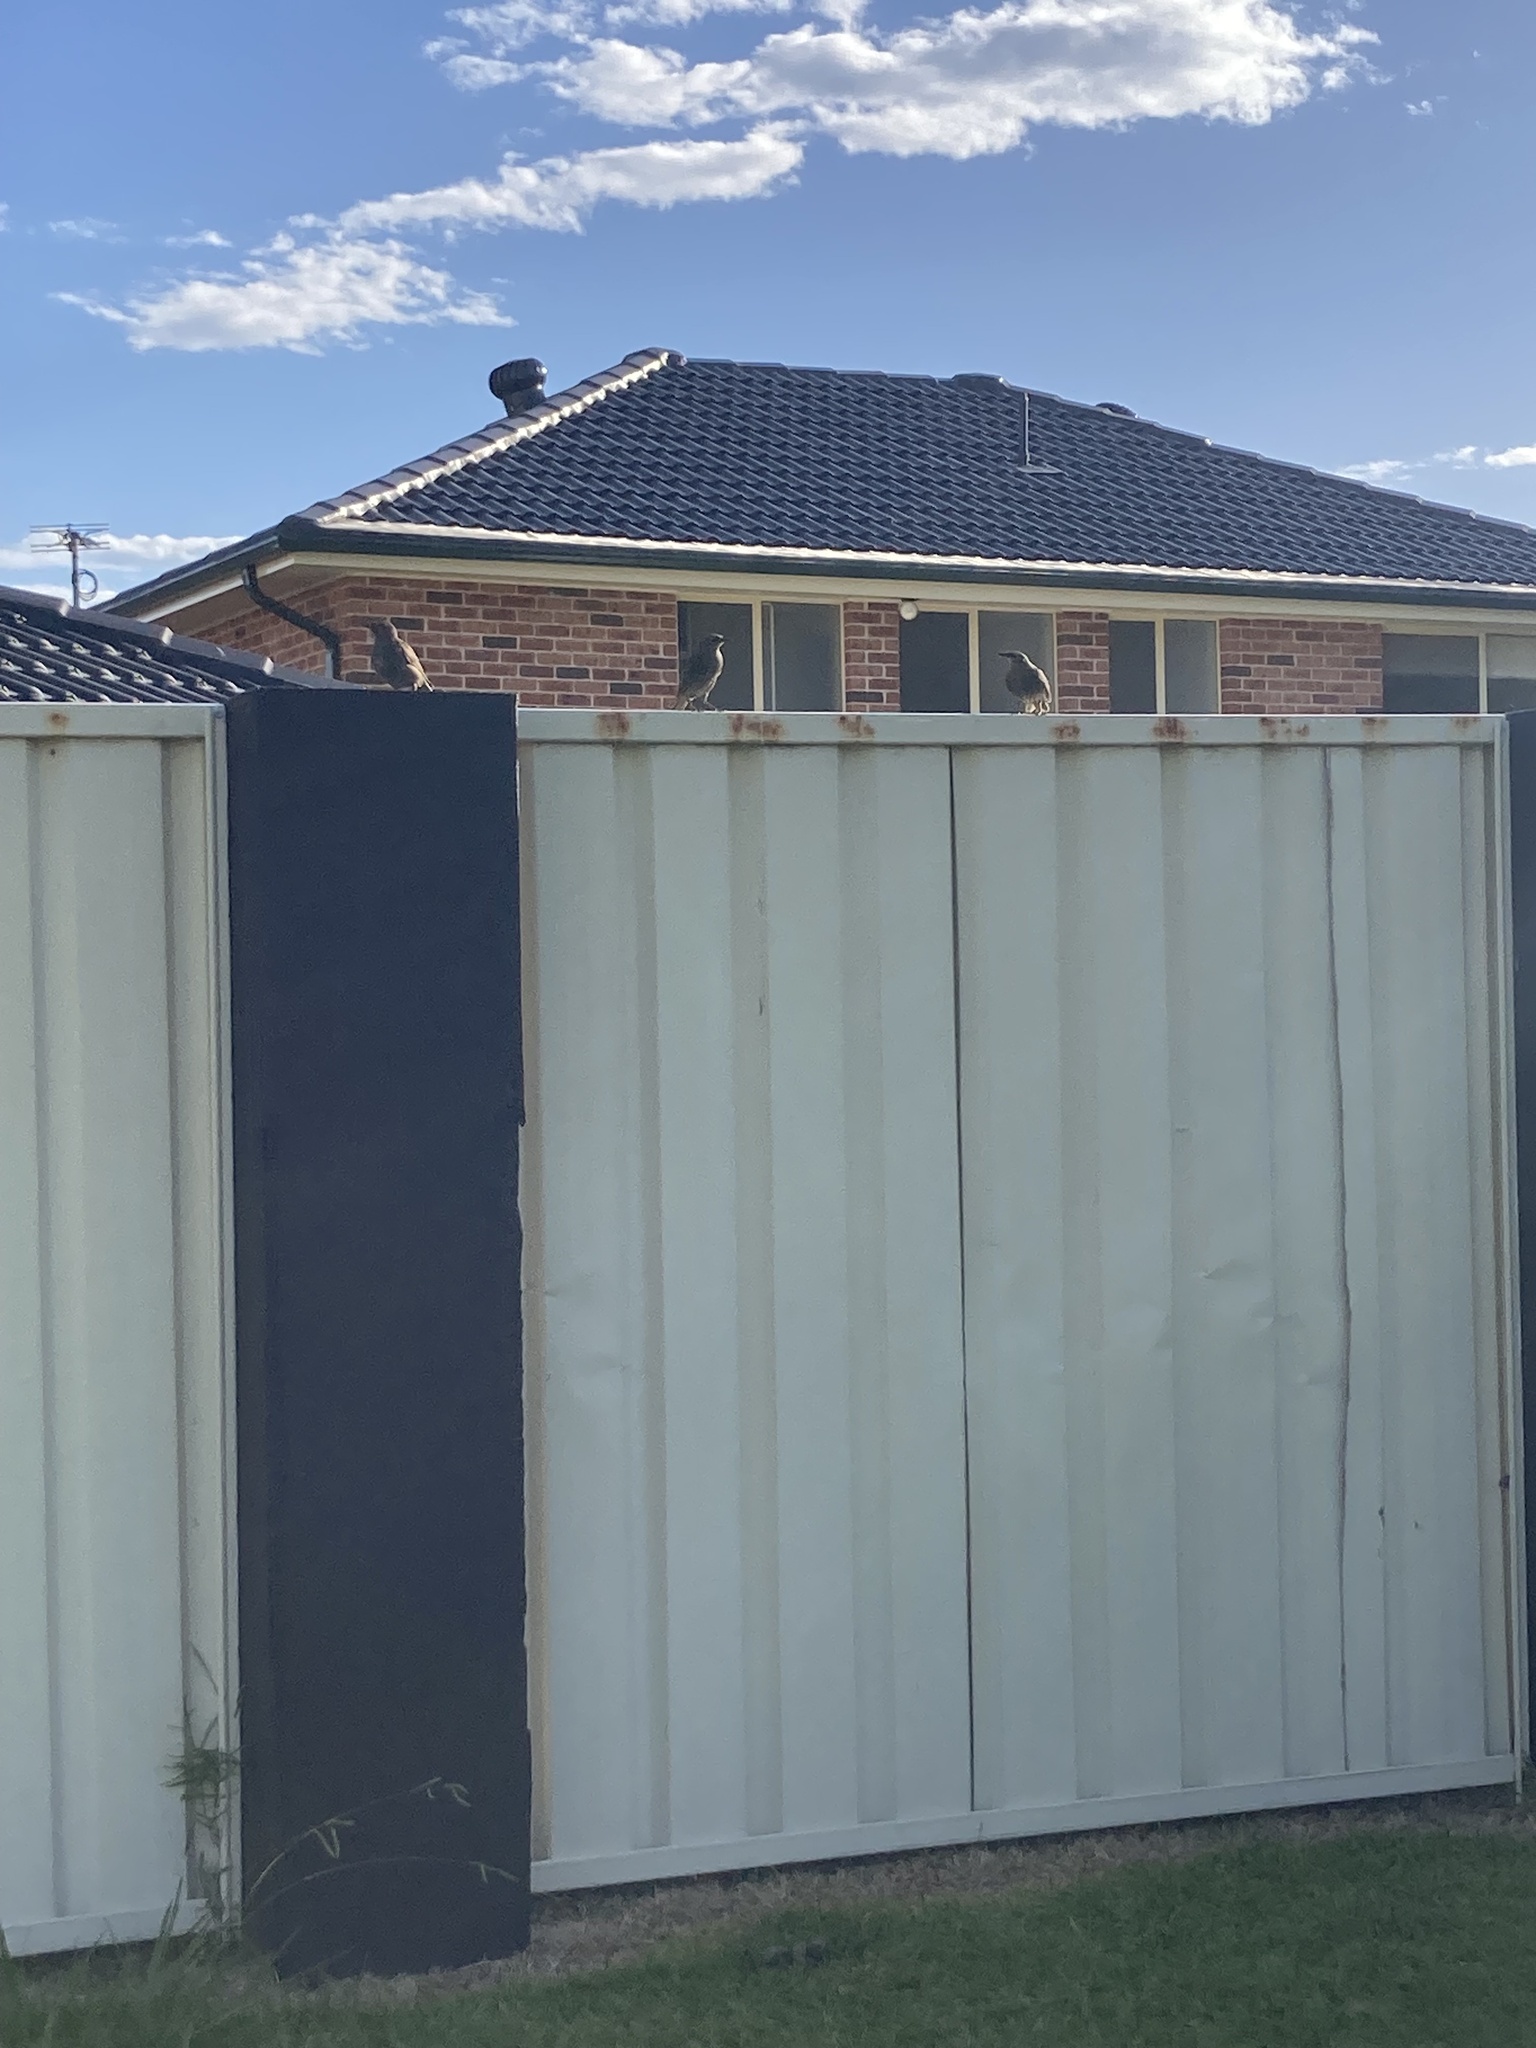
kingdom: Animalia
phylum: Chordata
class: Aves
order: Passeriformes
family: Sturnidae
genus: Sturnus
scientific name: Sturnus vulgaris
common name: Common starling
